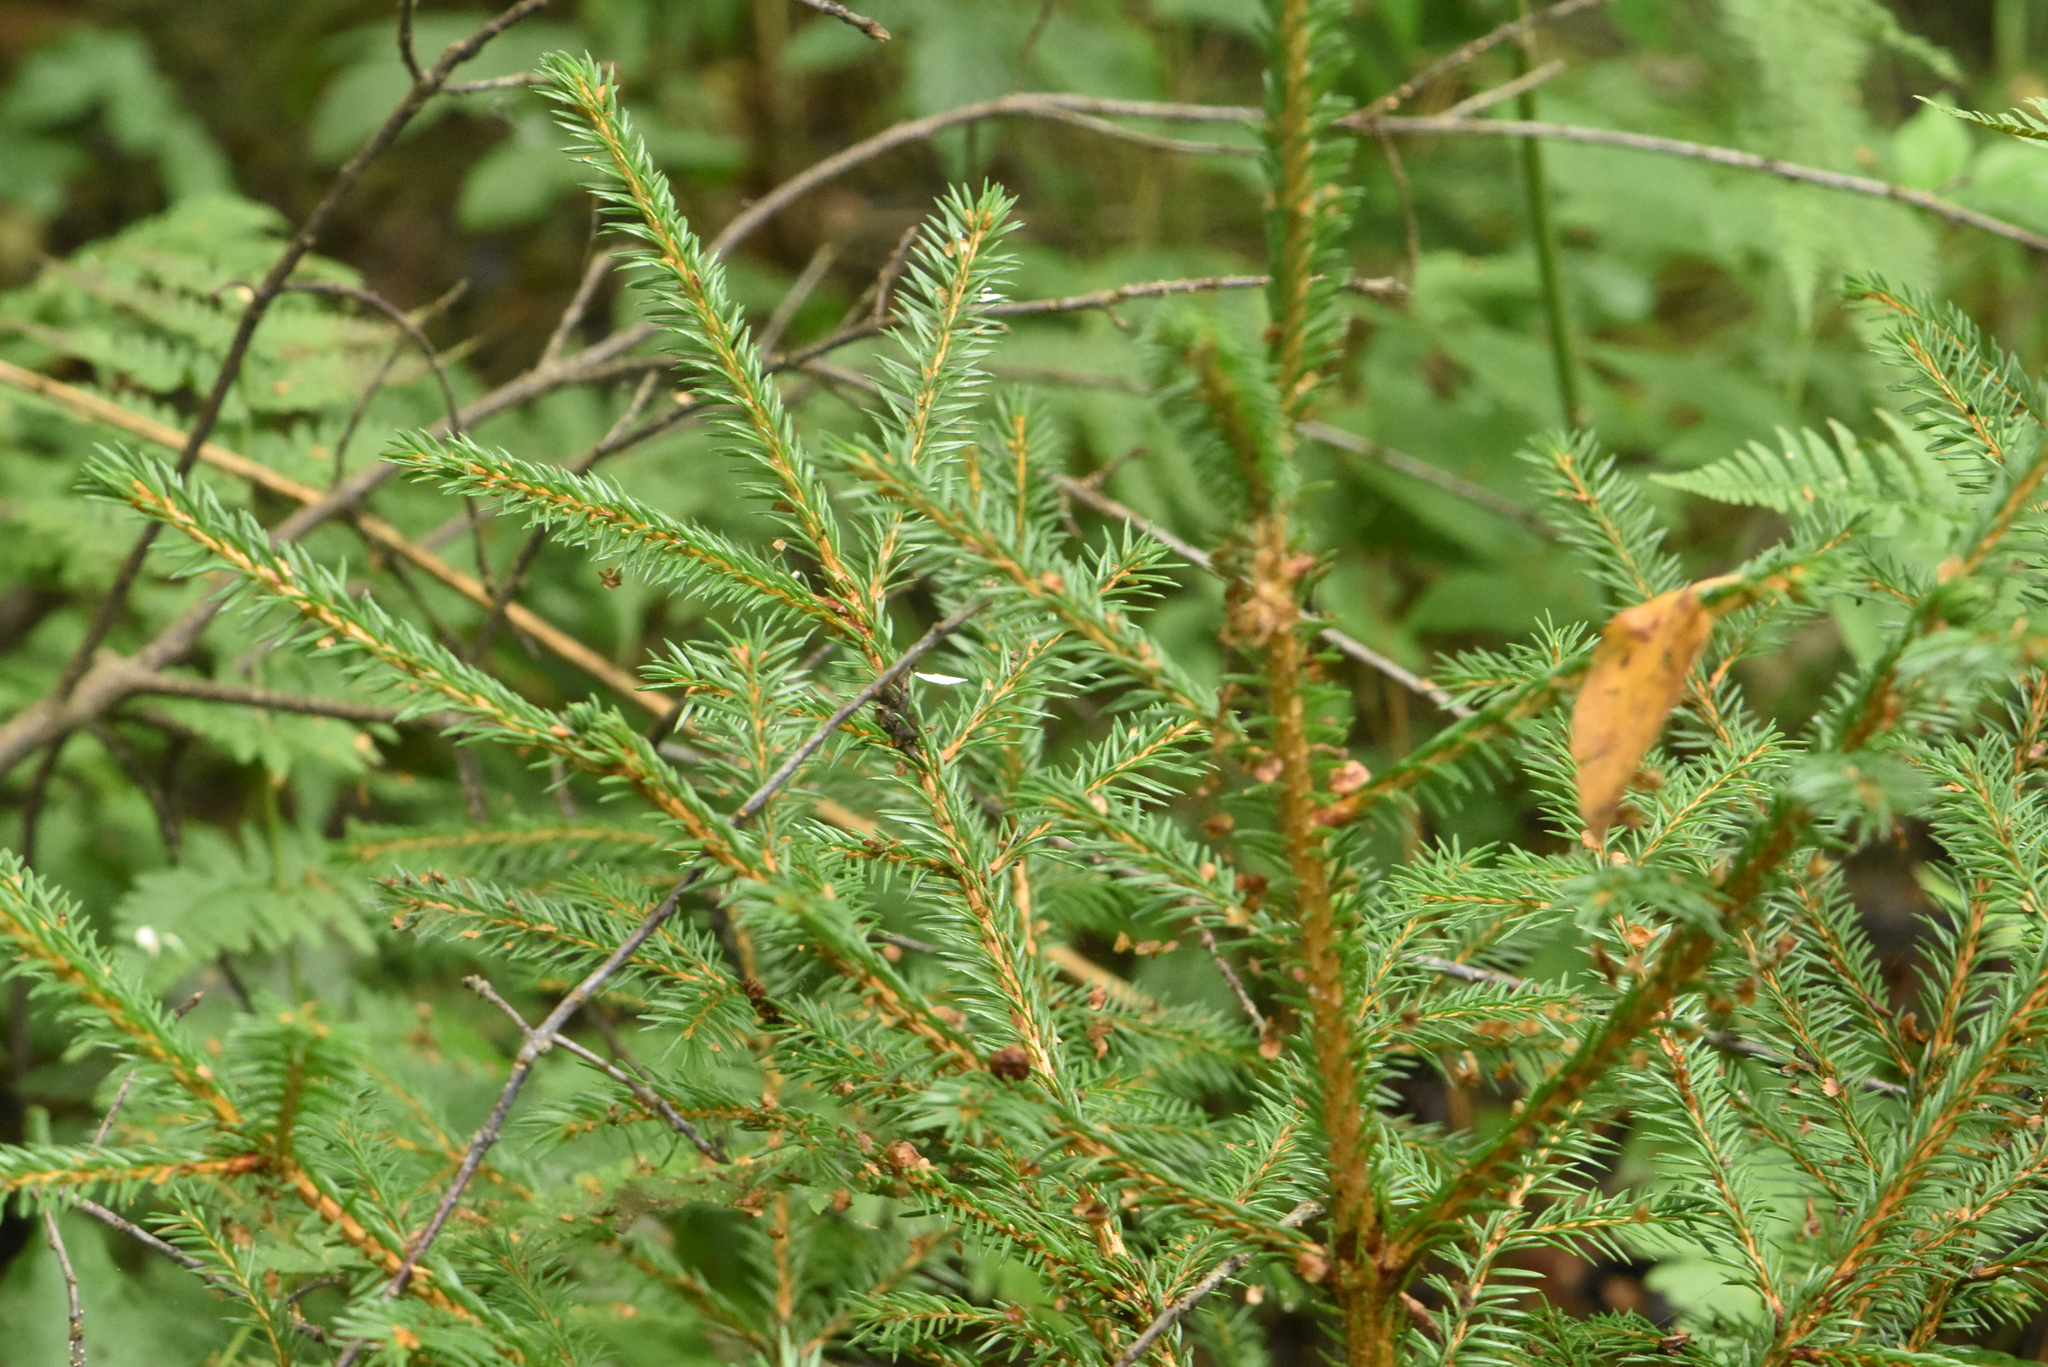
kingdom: Plantae
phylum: Tracheophyta
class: Pinopsida
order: Pinales
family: Pinaceae
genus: Picea
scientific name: Picea abies
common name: Norway spruce
